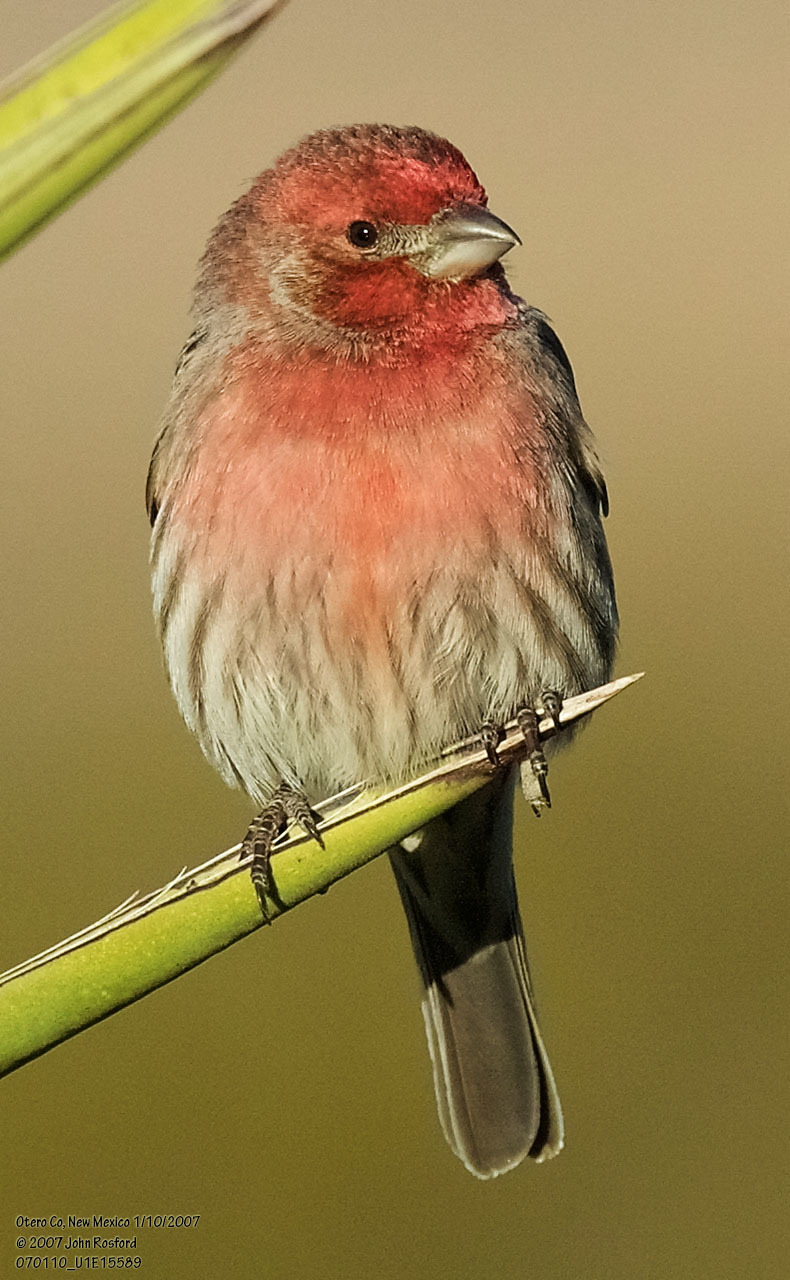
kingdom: Animalia
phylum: Chordata
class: Aves
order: Passeriformes
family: Fringillidae
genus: Haemorhous
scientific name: Haemorhous mexicanus
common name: House finch
